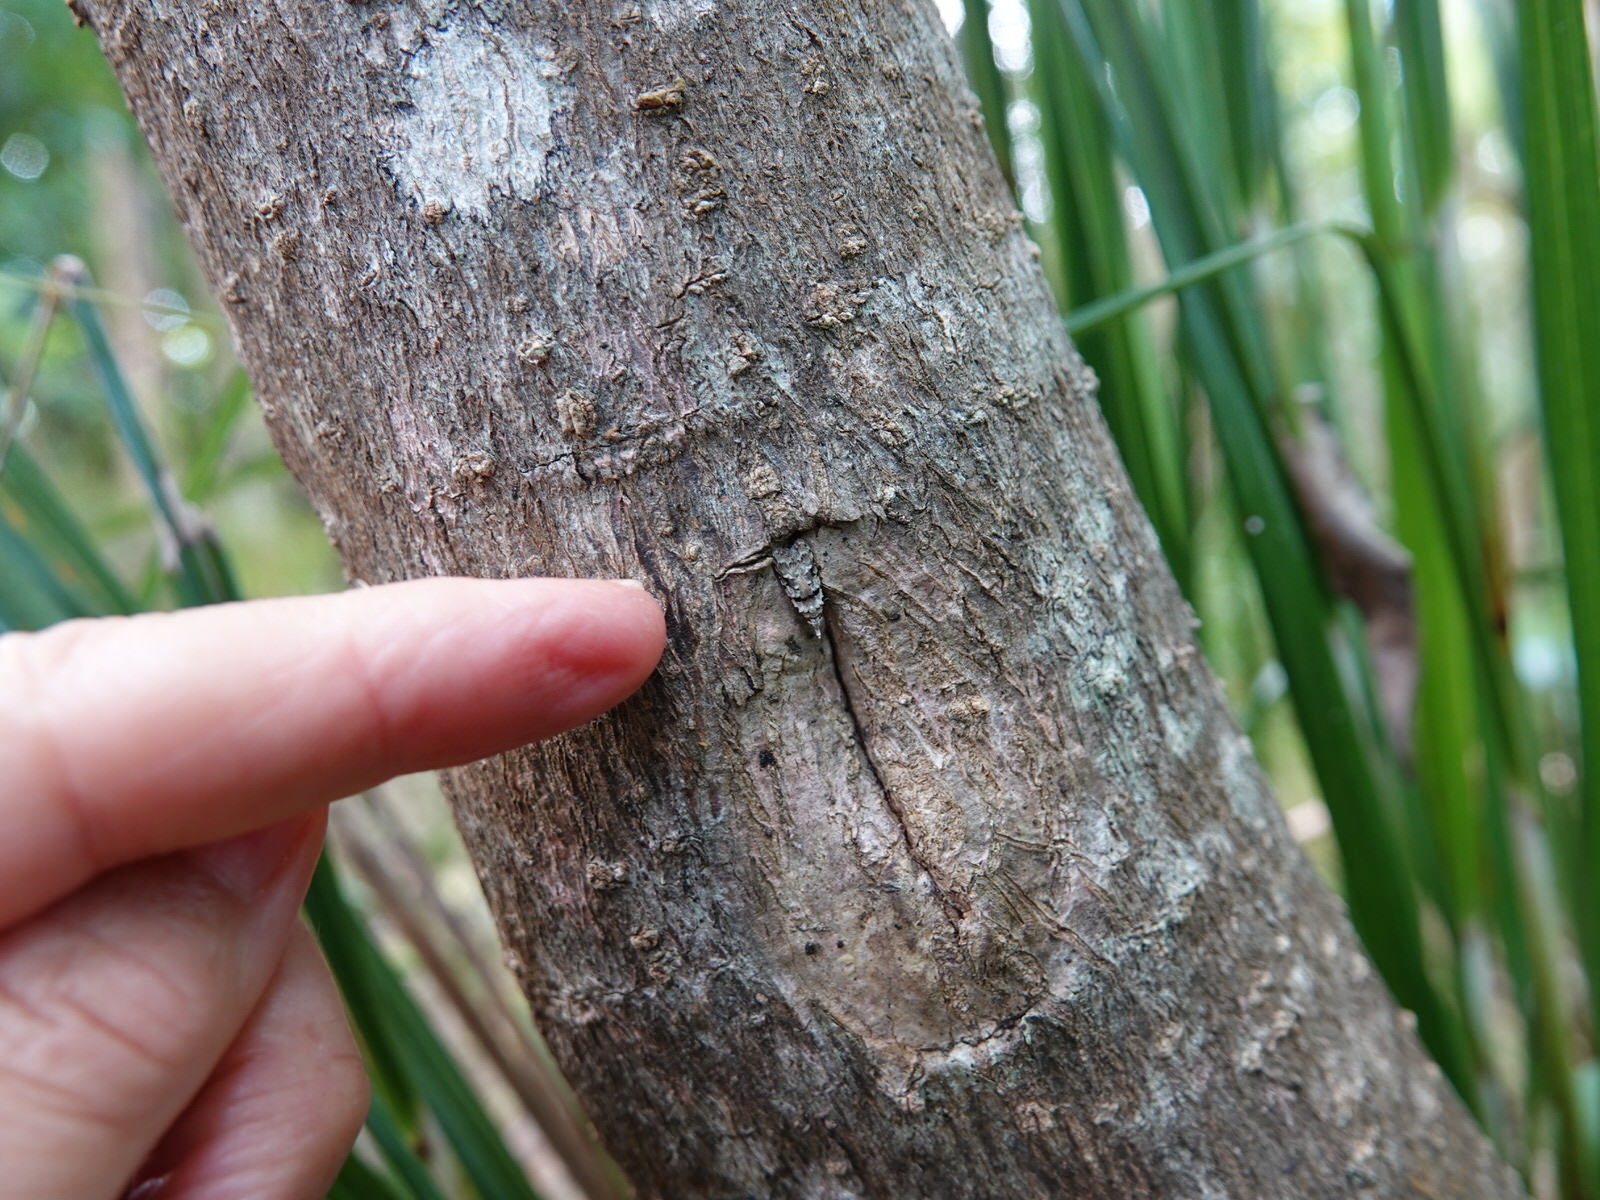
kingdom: Animalia
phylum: Arthropoda
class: Insecta
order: Lepidoptera
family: Carposinidae
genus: Coscinoptycha
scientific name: Coscinoptycha improbana
